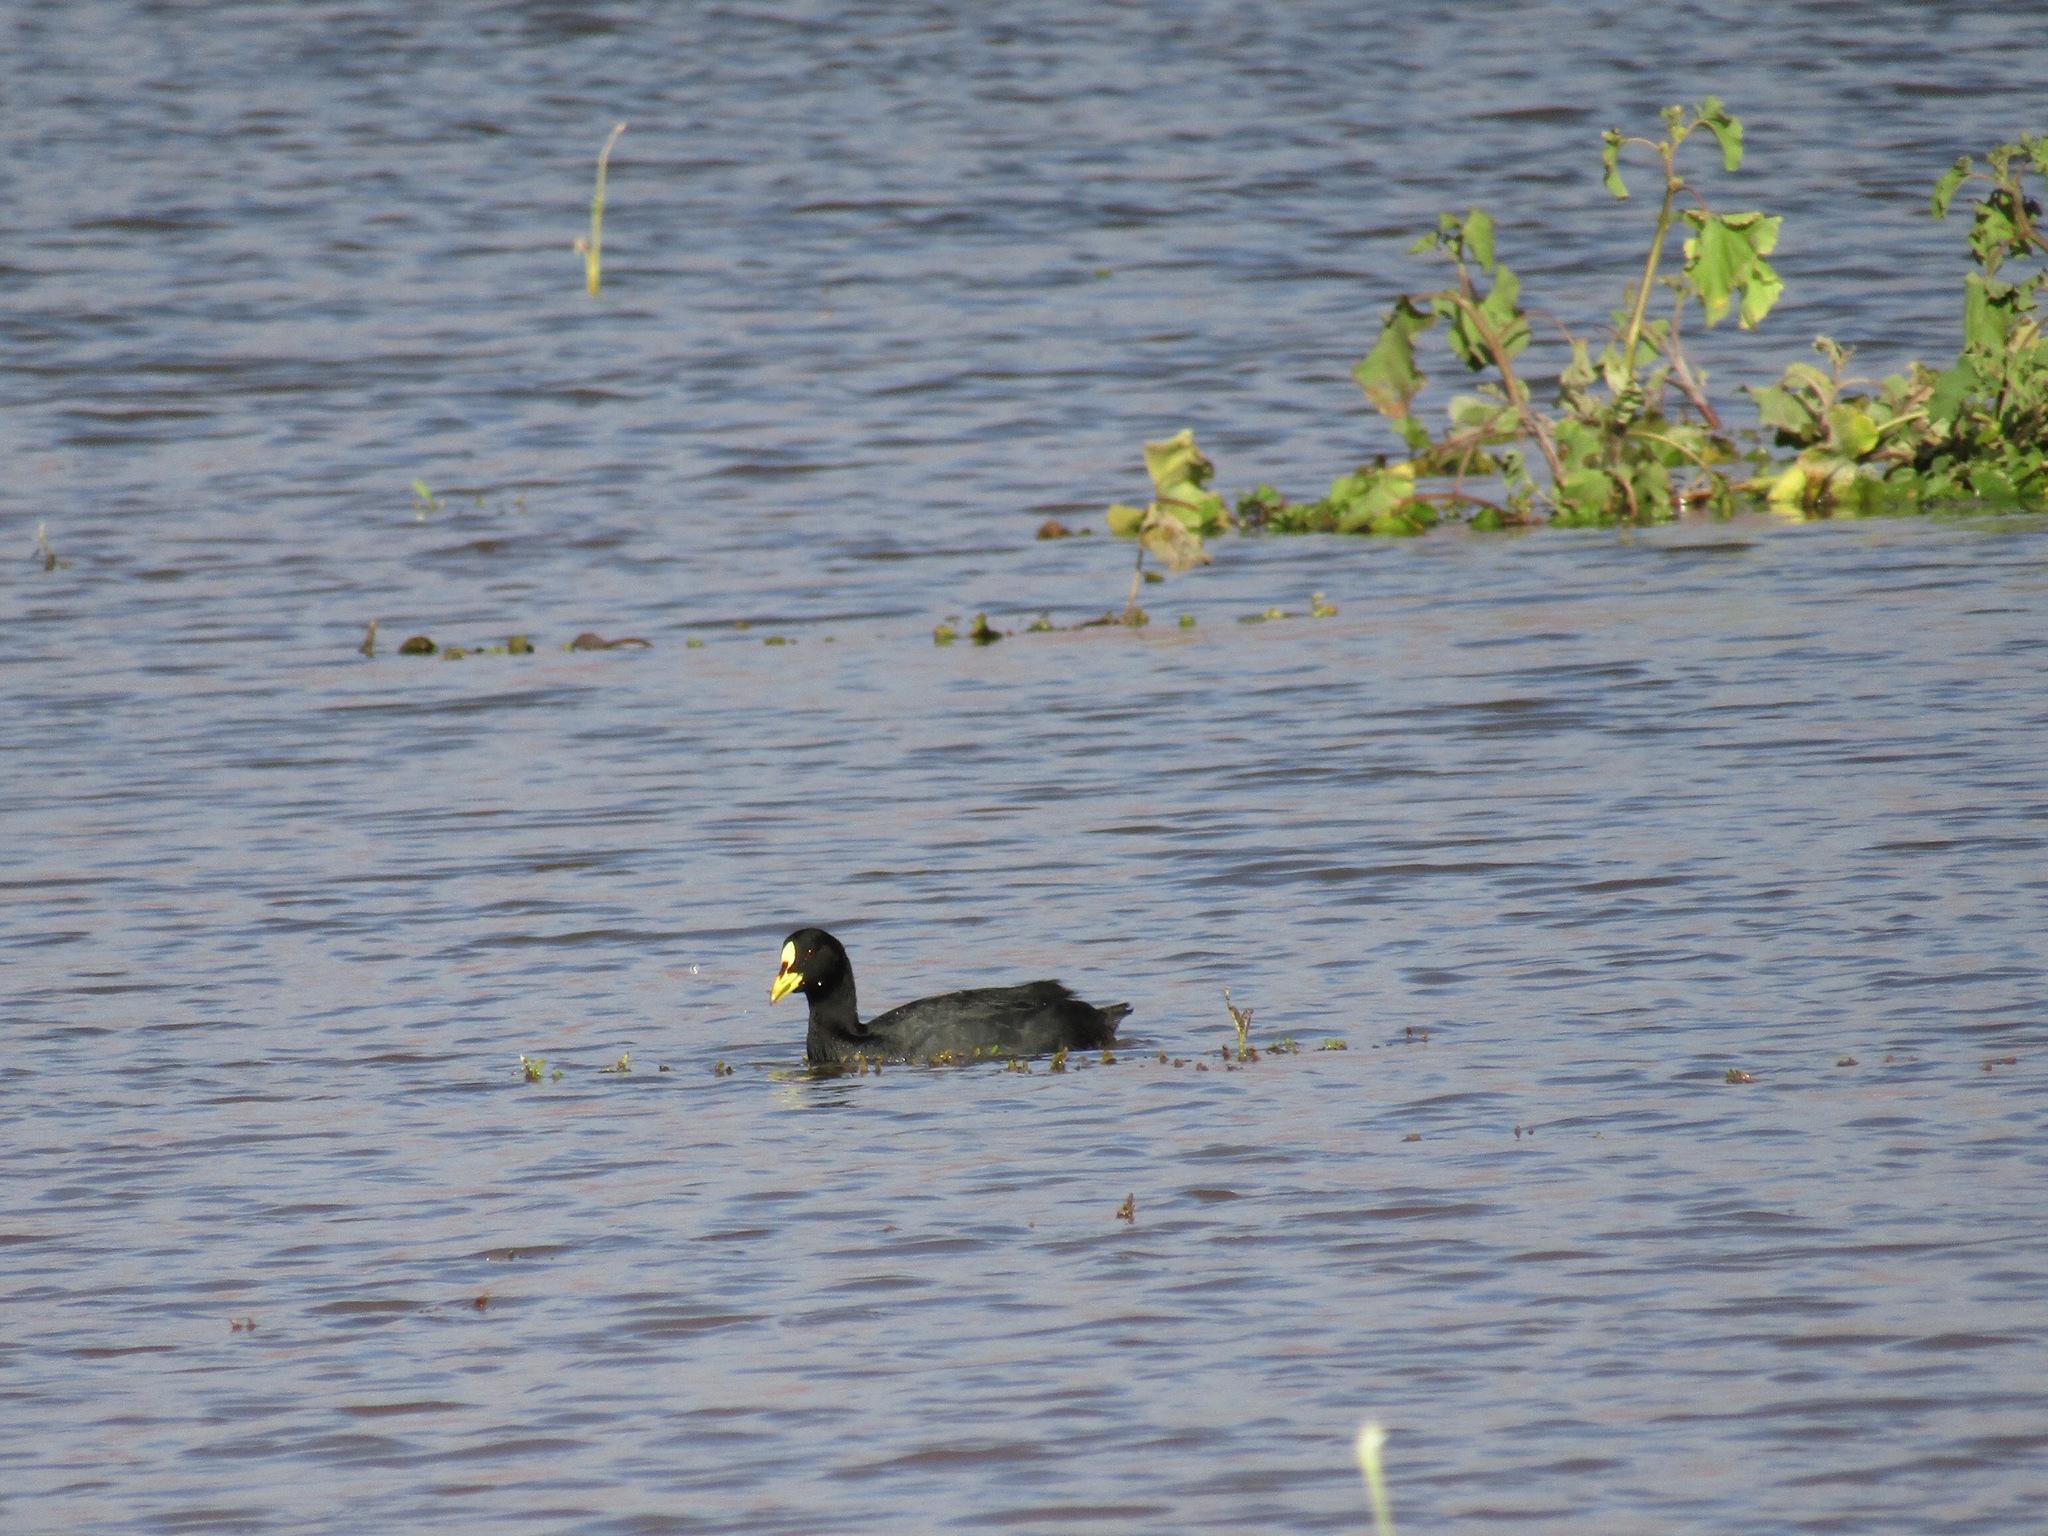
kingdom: Animalia
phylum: Chordata
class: Aves
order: Gruiformes
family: Rallidae
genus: Fulica
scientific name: Fulica armillata
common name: Red-gartered coot
